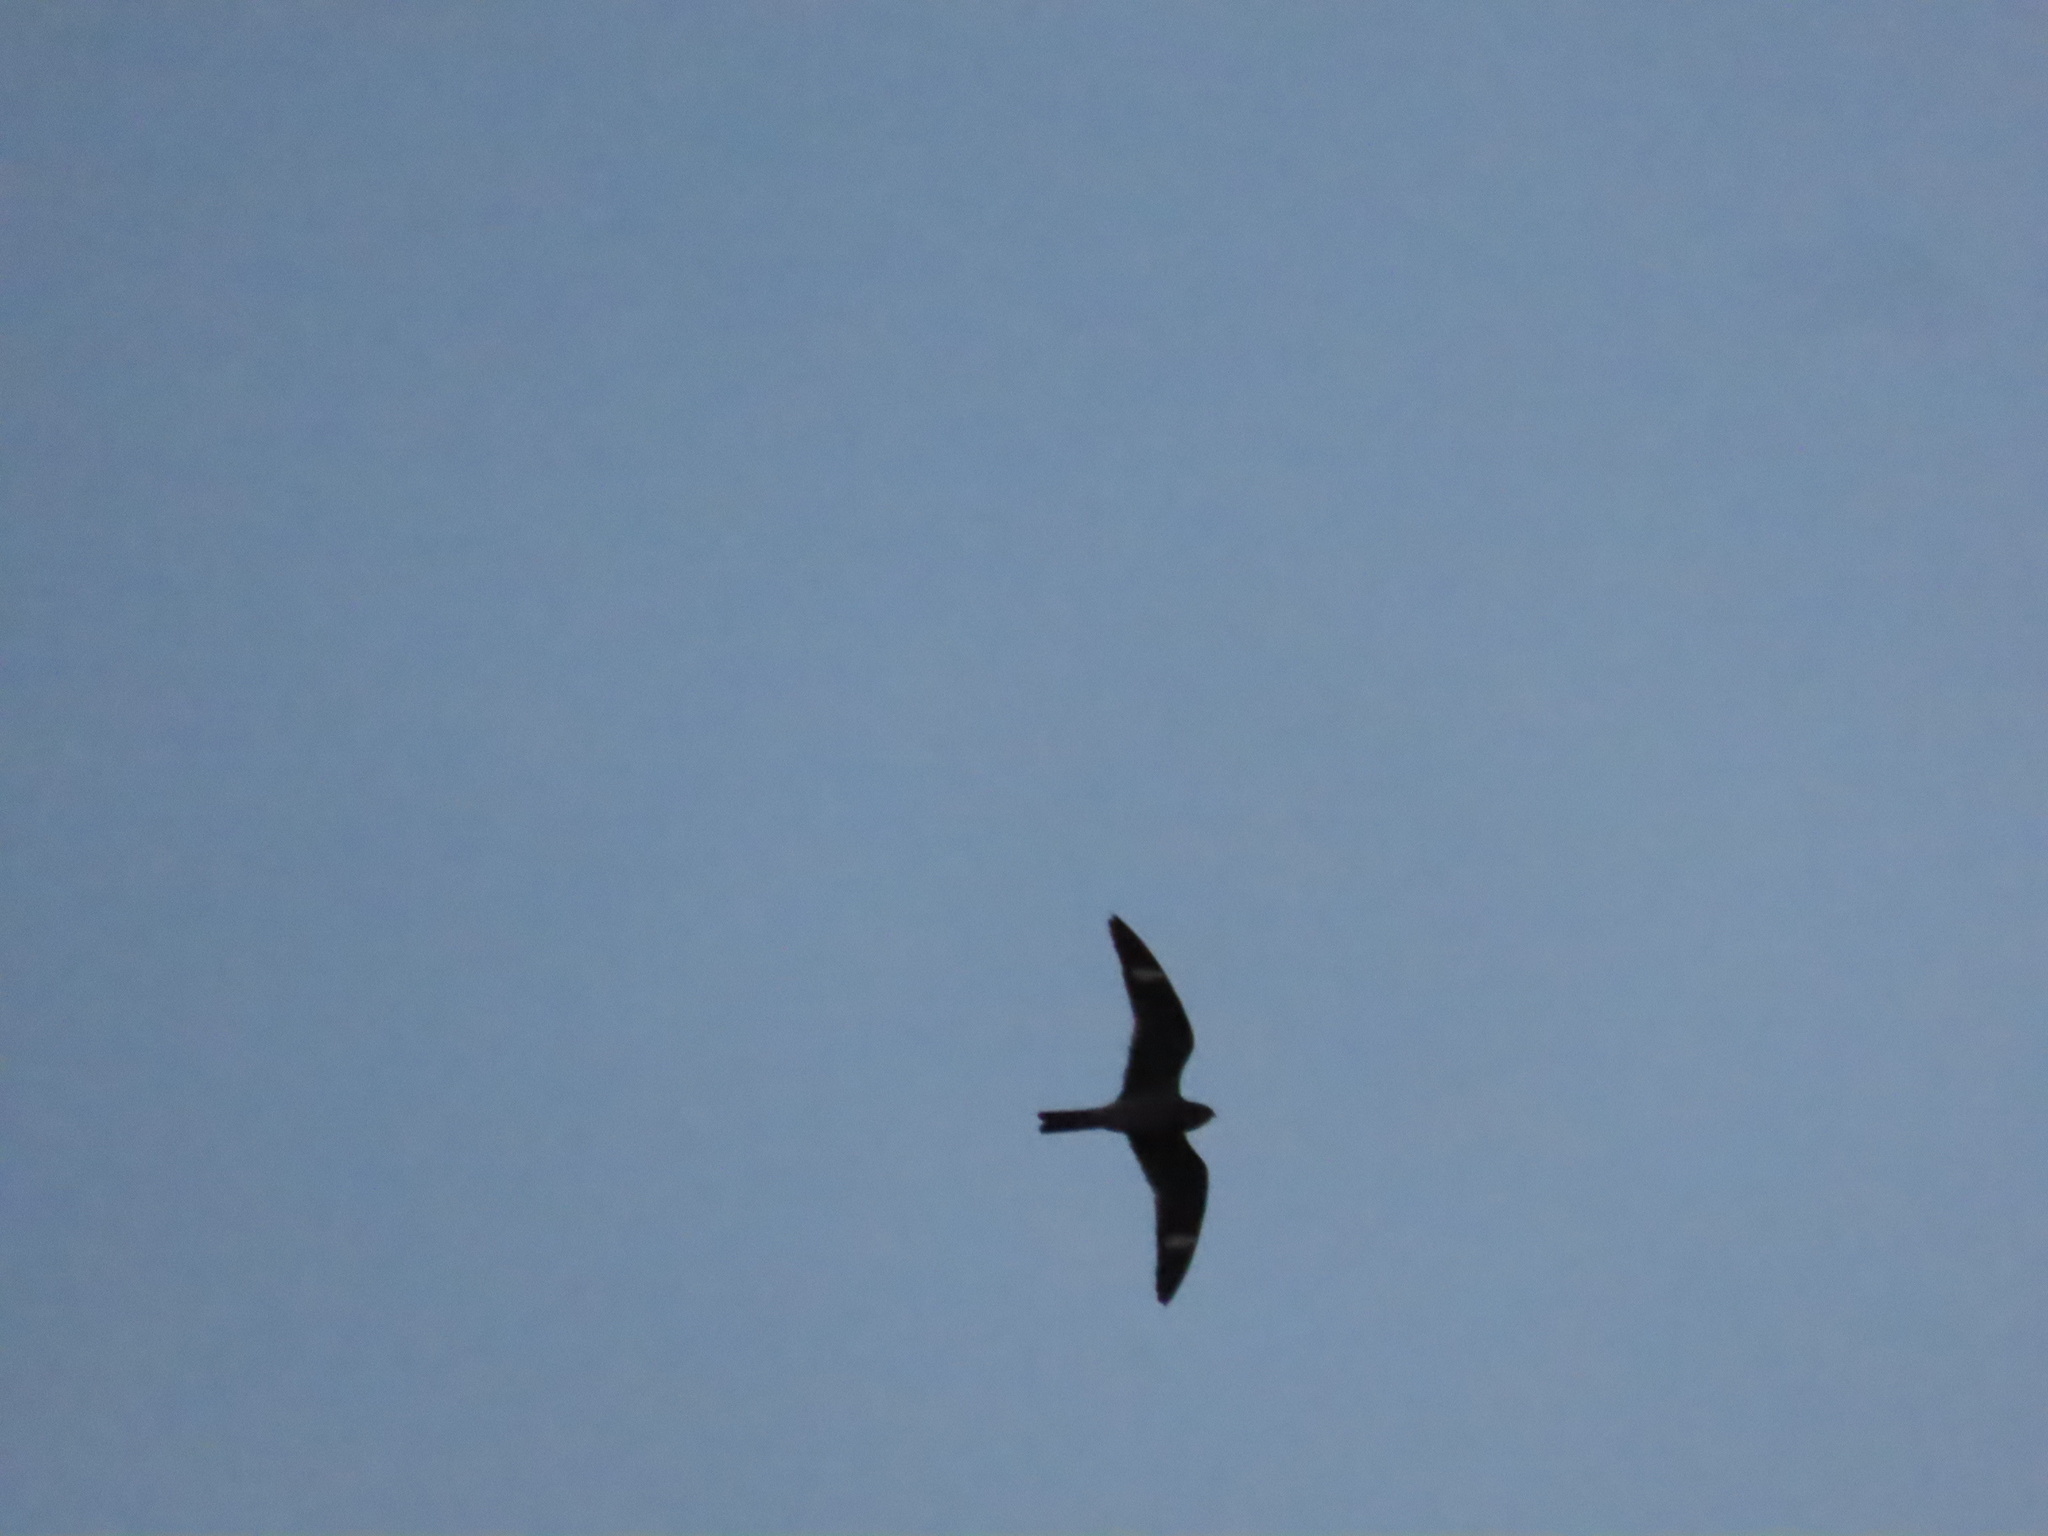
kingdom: Animalia
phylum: Chordata
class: Aves
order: Caprimulgiformes
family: Caprimulgidae
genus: Chordeiles
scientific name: Chordeiles minor
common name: Common nighthawk
